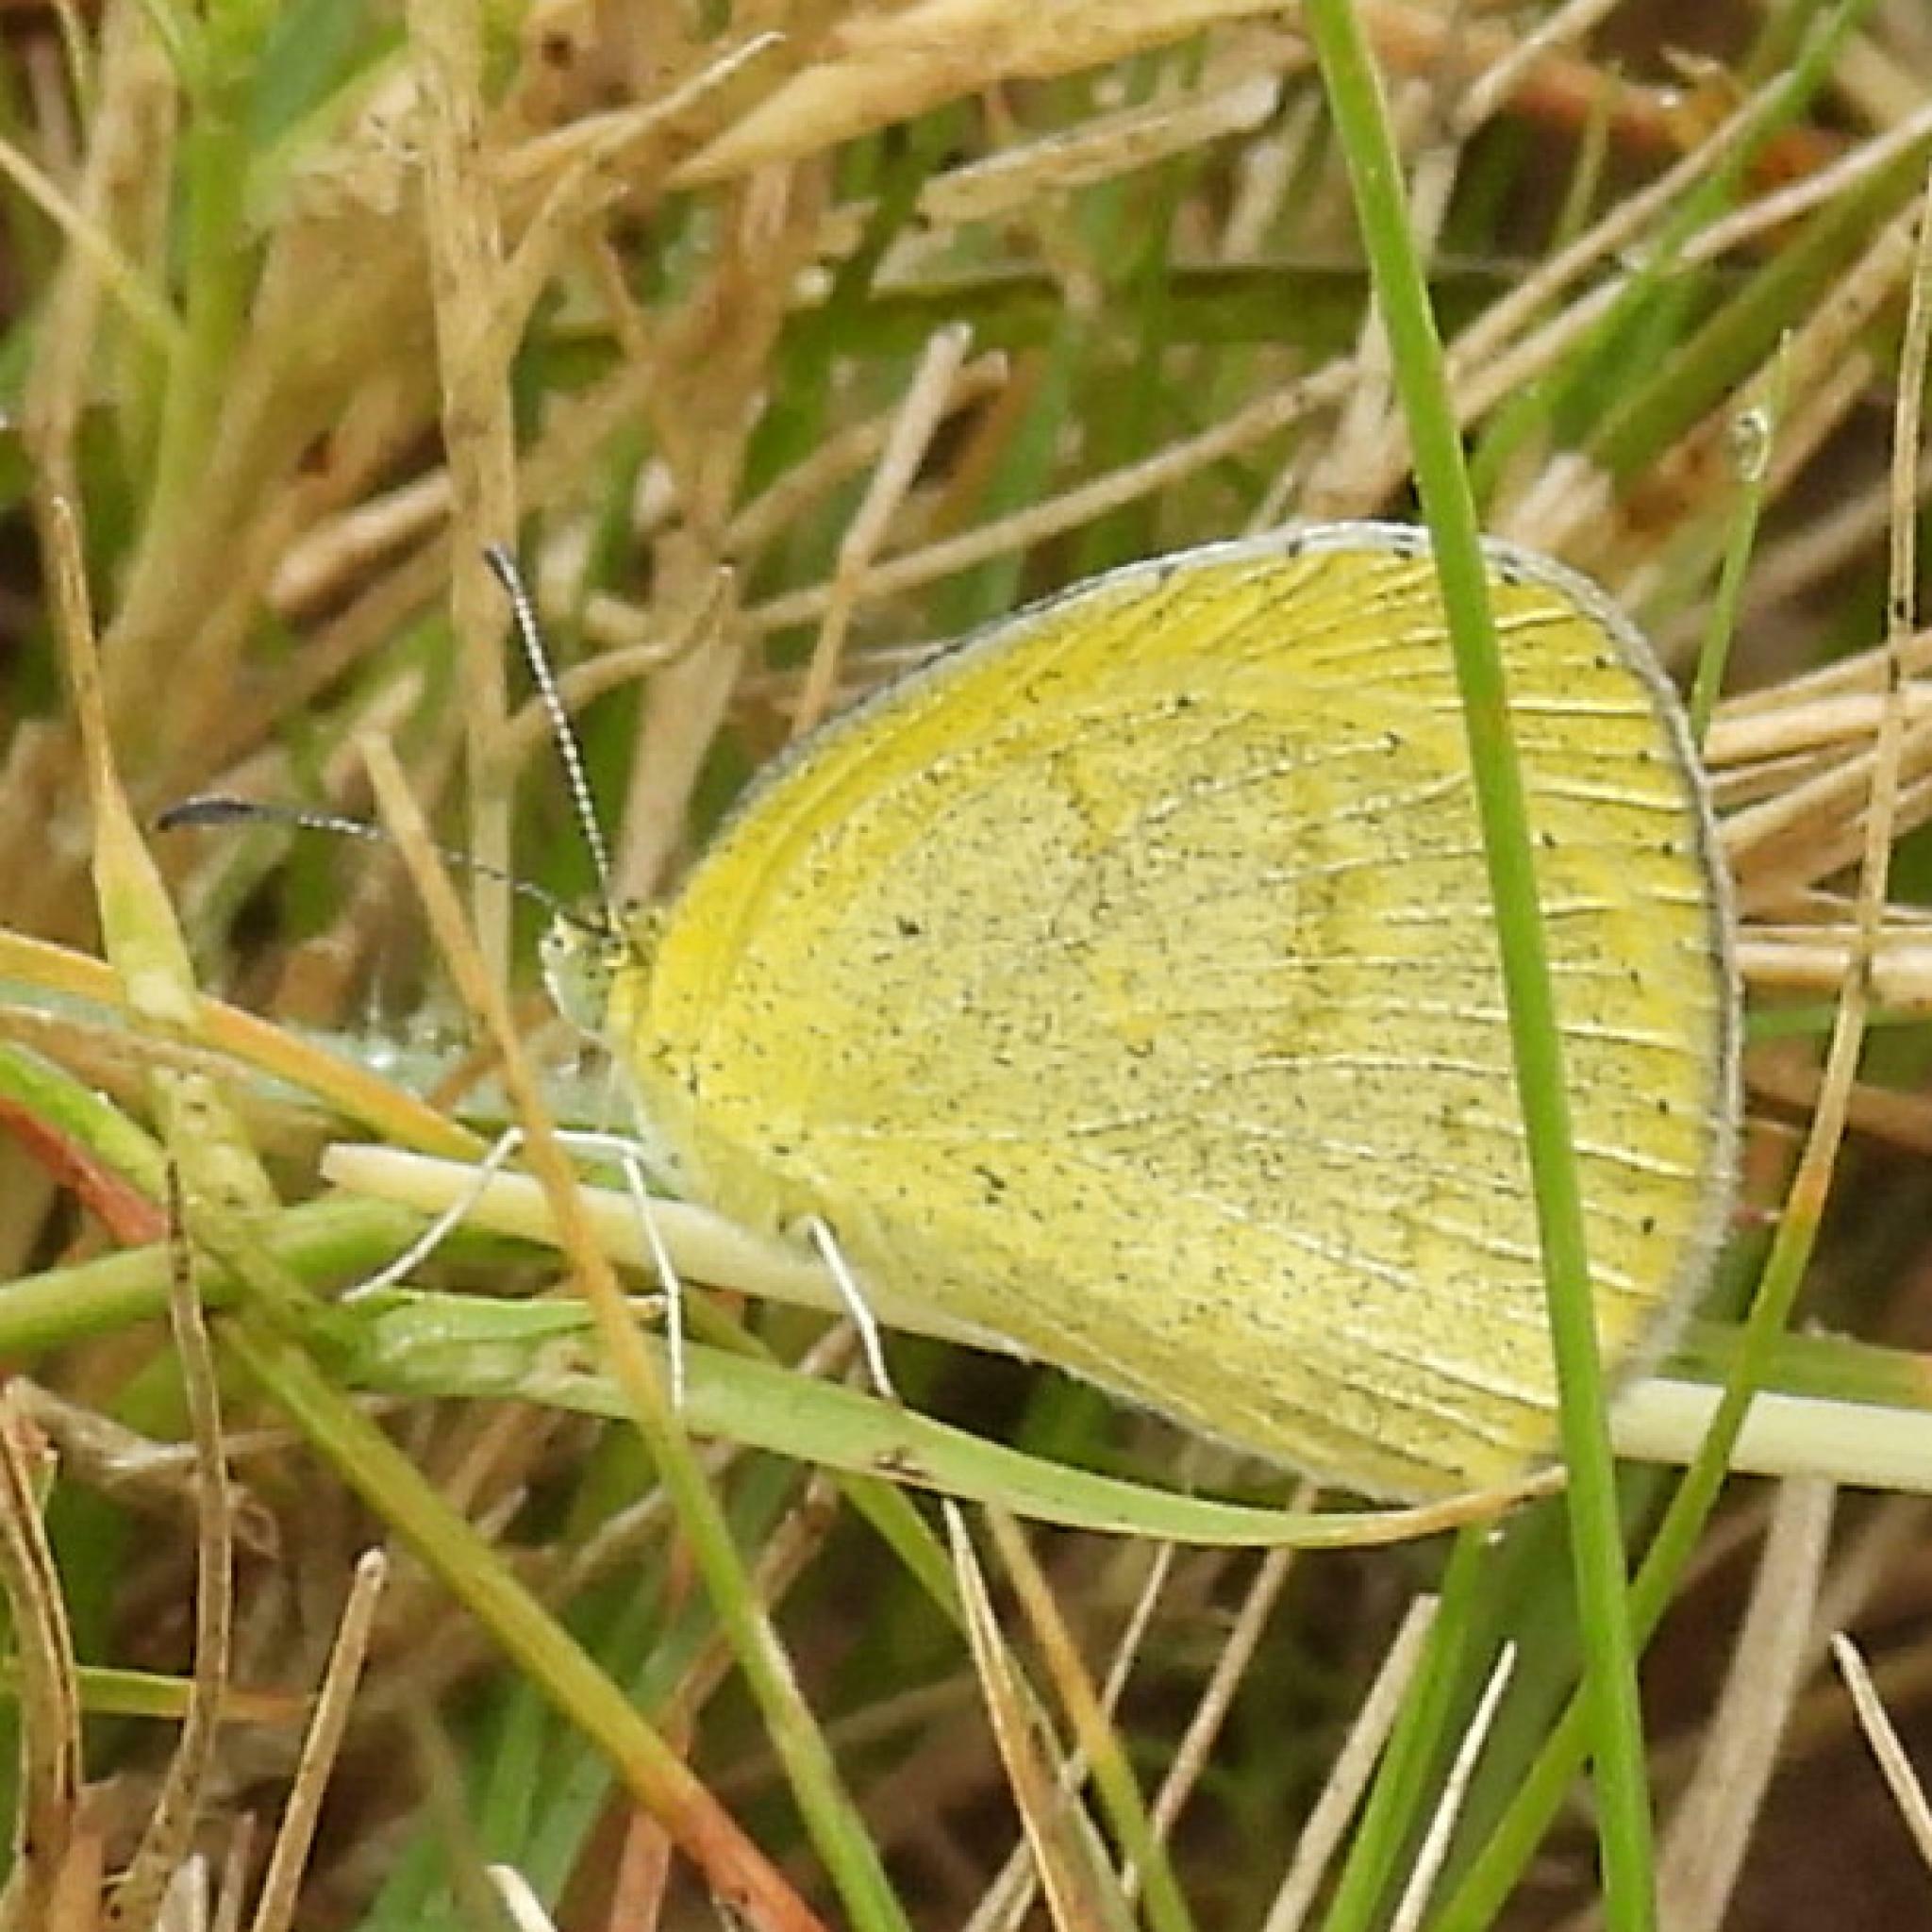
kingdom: Animalia
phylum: Arthropoda
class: Insecta
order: Lepidoptera
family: Pieridae
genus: Eurema
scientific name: Eurema brigitta
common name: Small grass yellow
